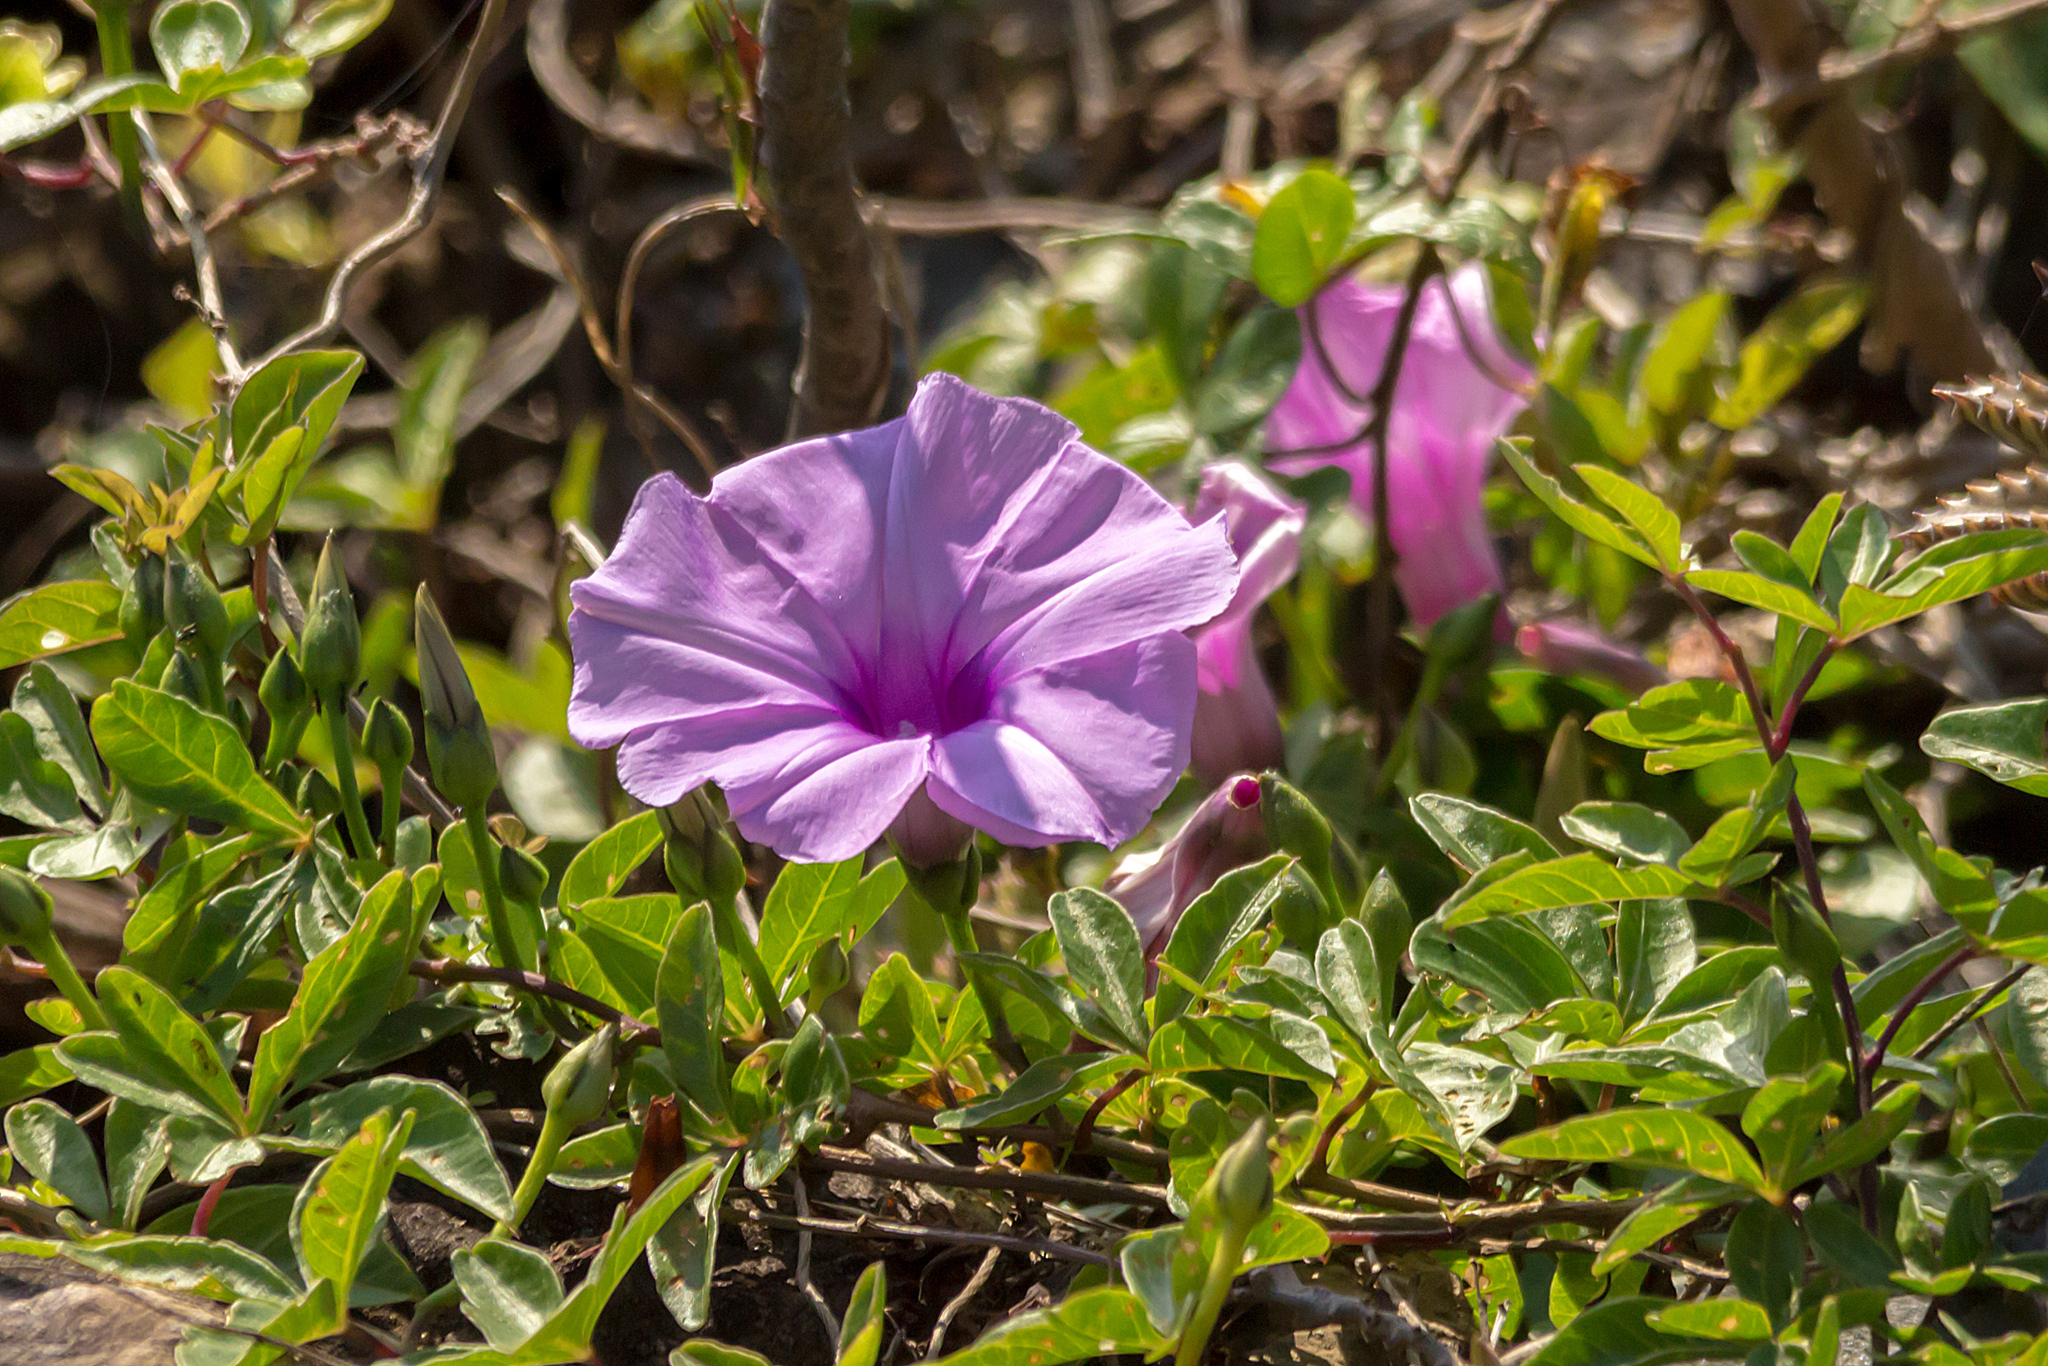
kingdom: Plantae
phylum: Tracheophyta
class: Magnoliopsida
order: Solanales
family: Convolvulaceae
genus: Ipomoea
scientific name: Ipomoea cairica
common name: Mile a minute vine
